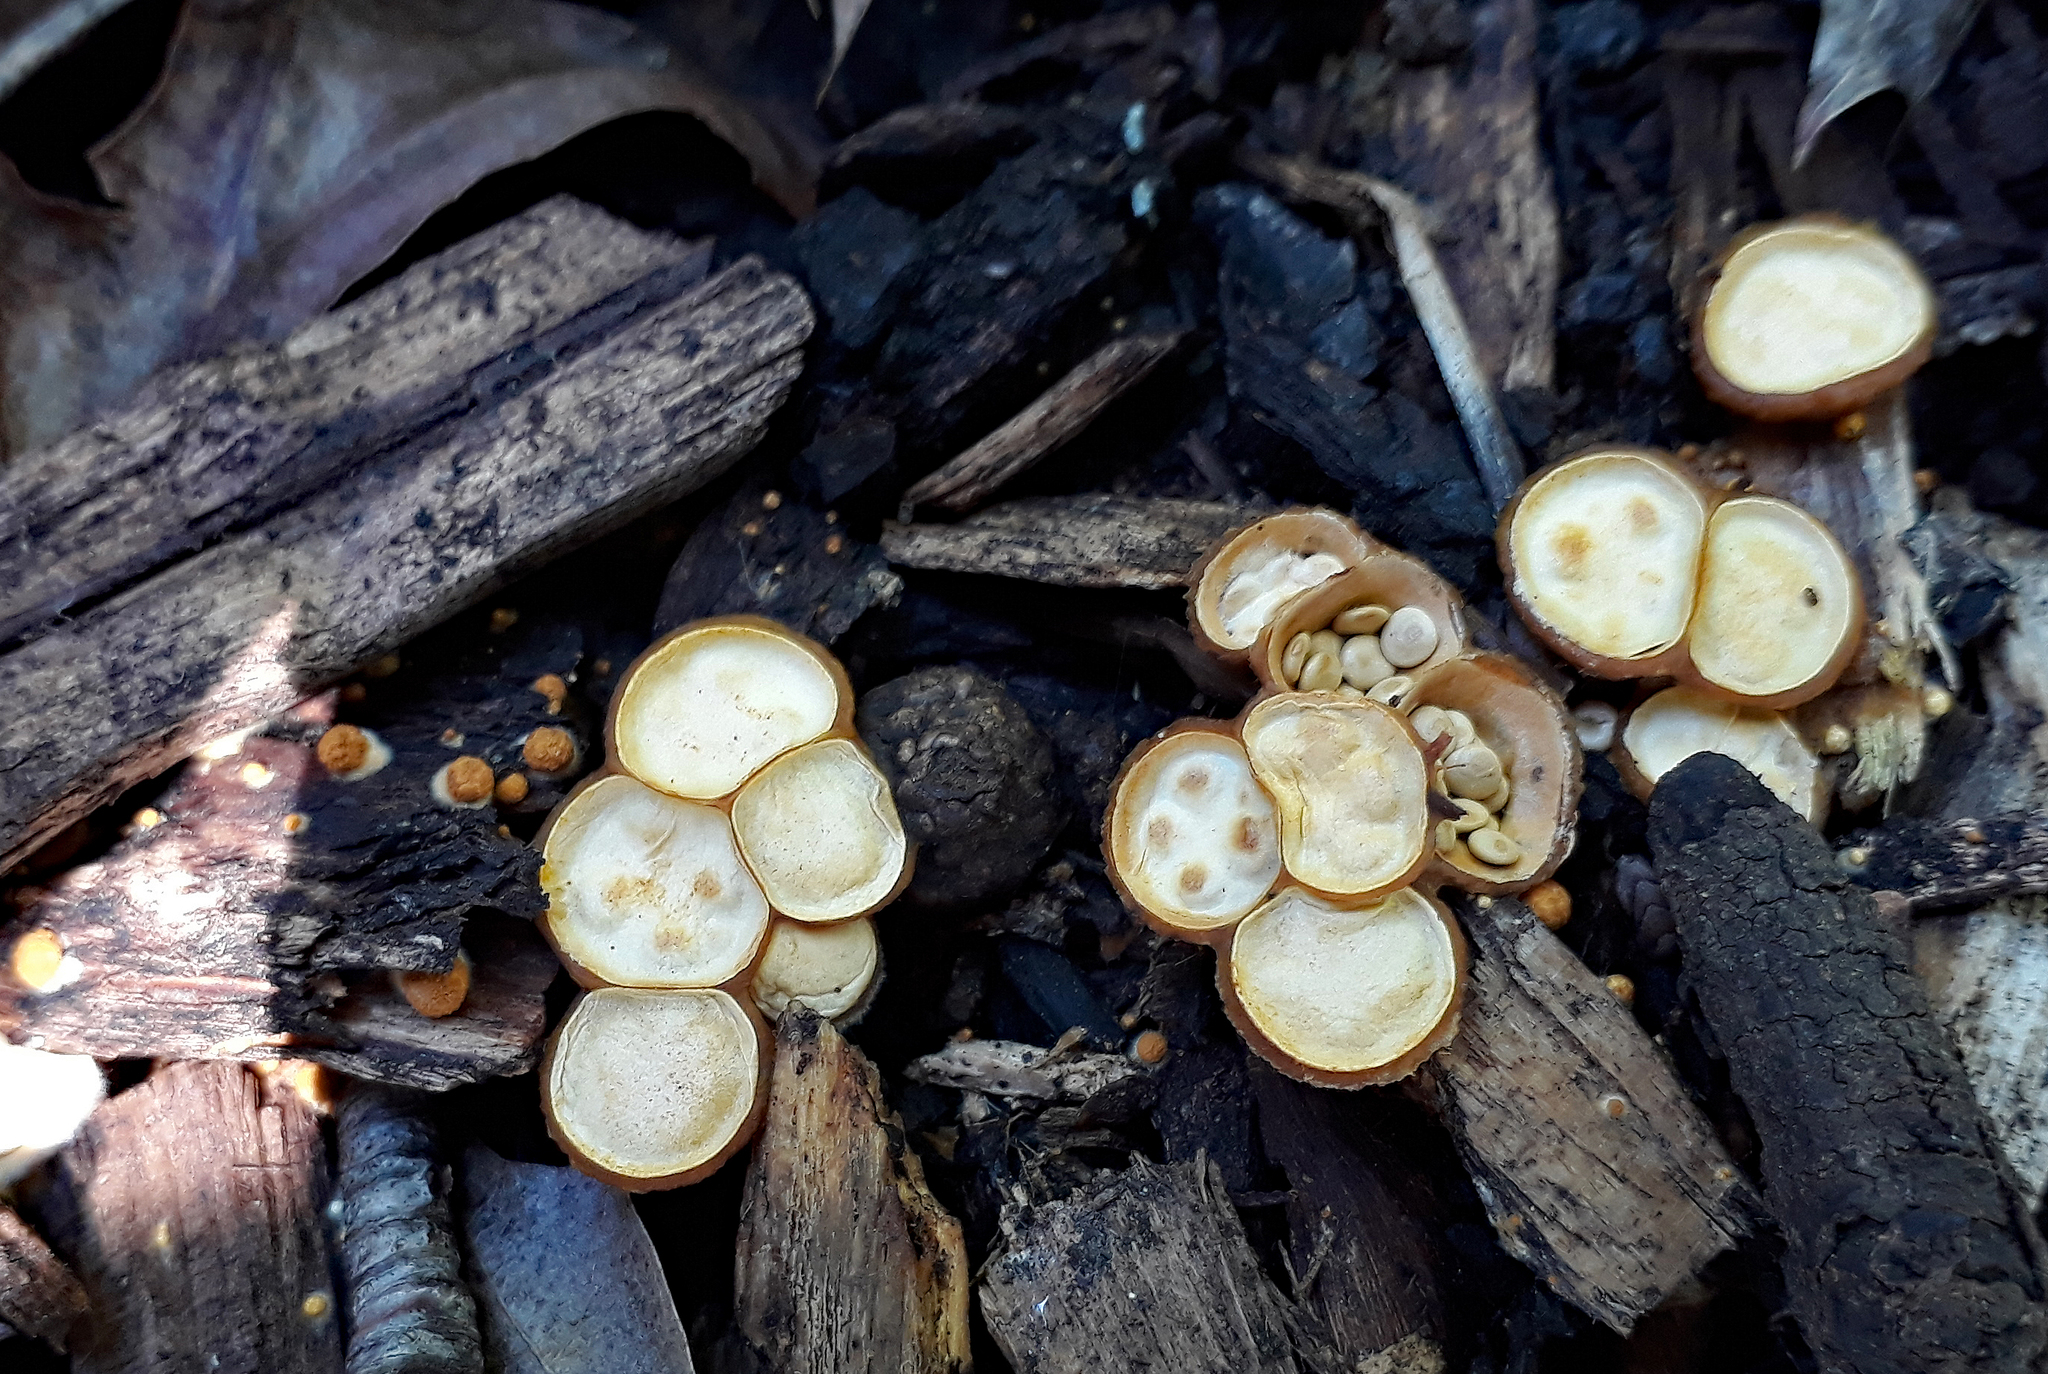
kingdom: Fungi
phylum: Basidiomycota
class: Agaricomycetes
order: Agaricales
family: Nidulariaceae
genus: Crucibulum
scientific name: Crucibulum laeve
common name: Common bird's nest
